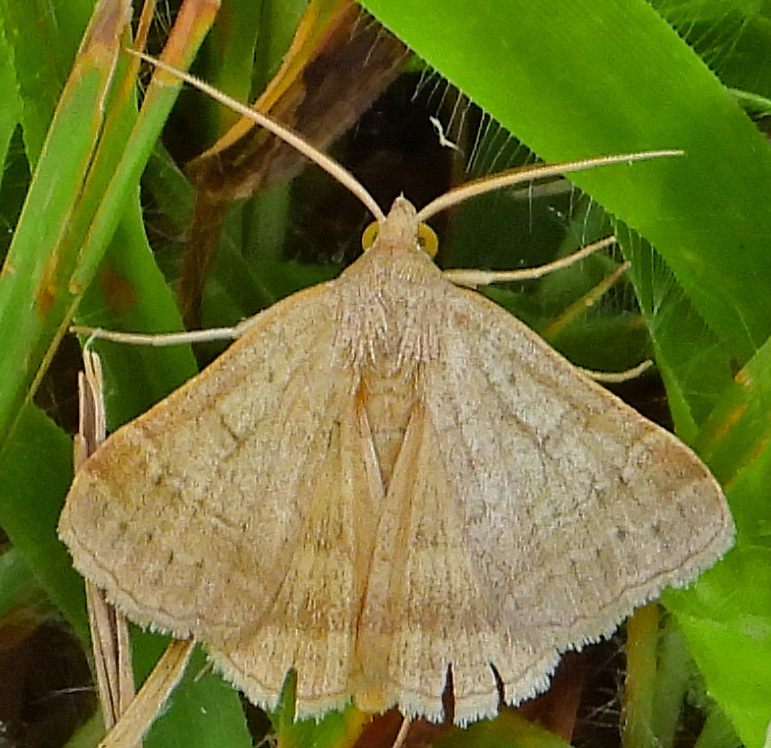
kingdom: Animalia
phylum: Arthropoda
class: Insecta
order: Lepidoptera
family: Erebidae
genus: Caenurgia
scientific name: Caenurgia chloropha
